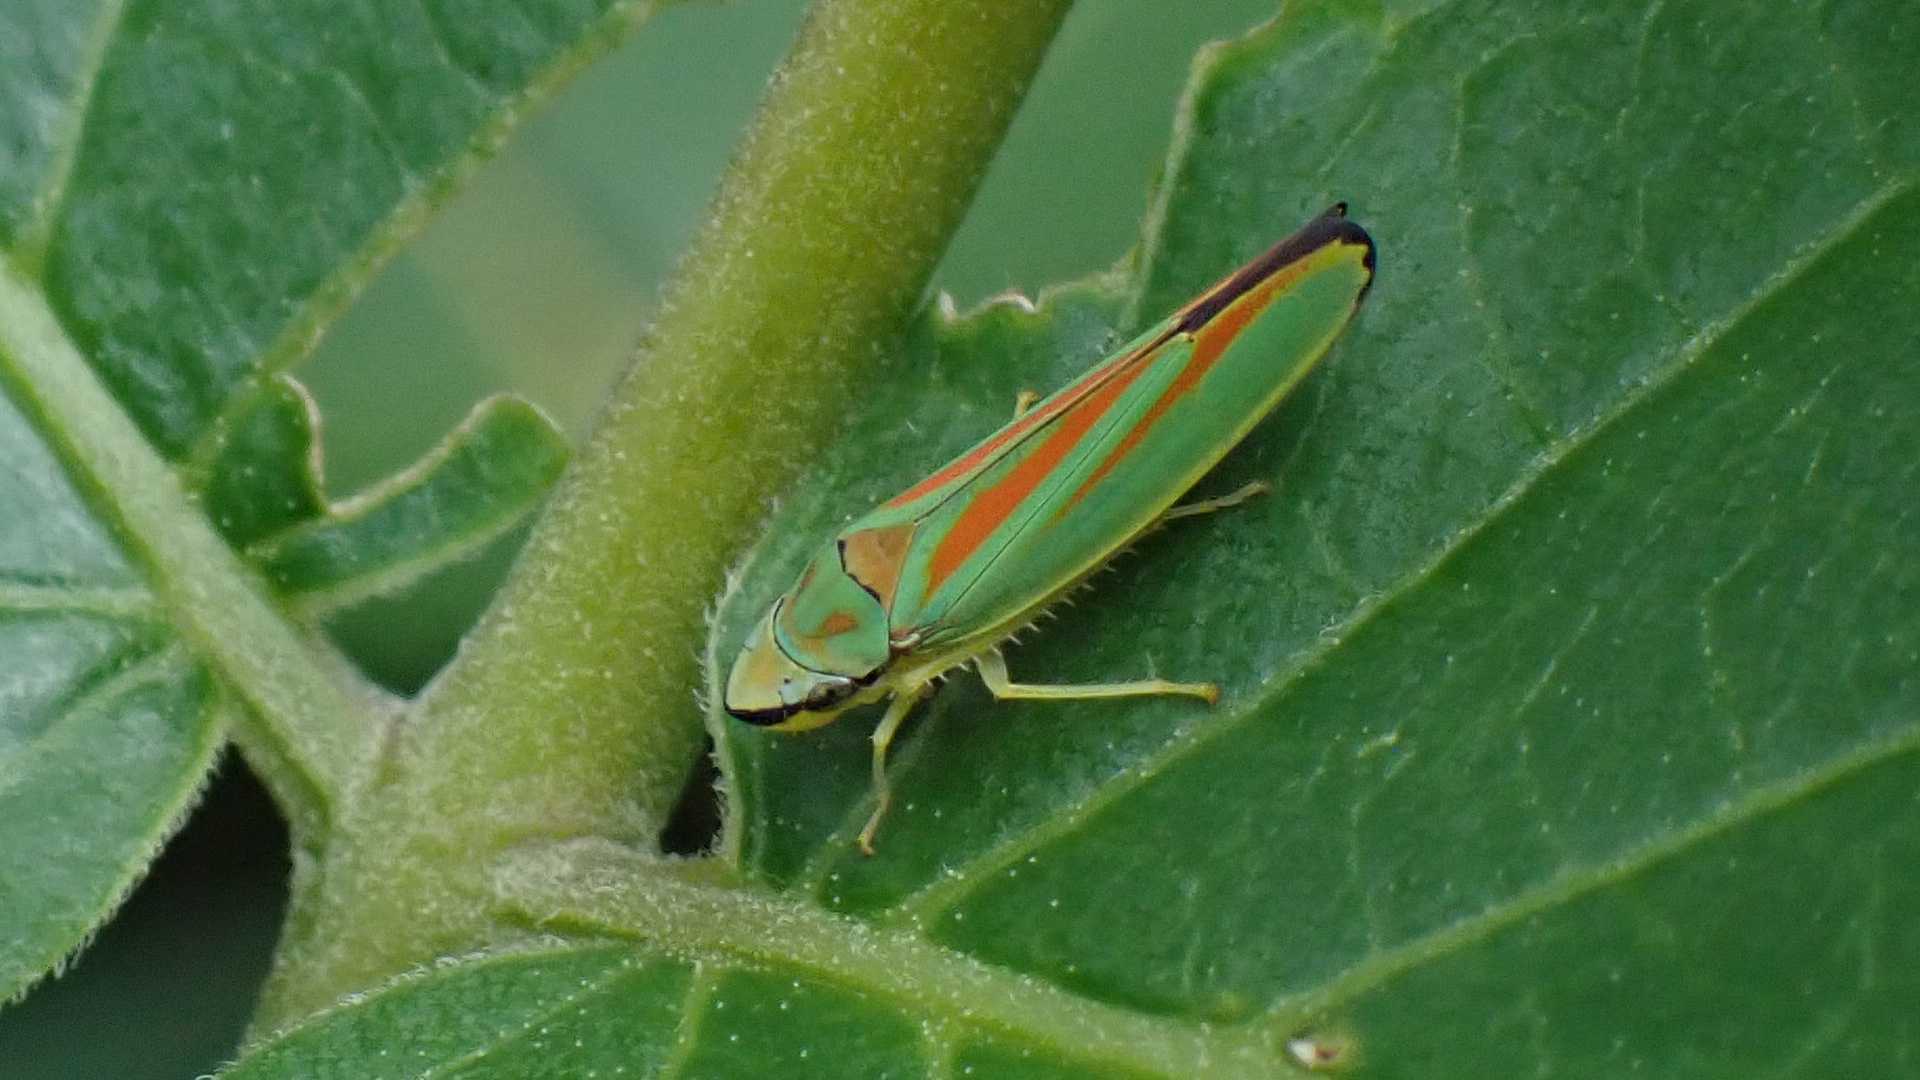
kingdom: Animalia
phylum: Arthropoda
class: Insecta
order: Hemiptera
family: Cicadellidae
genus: Graphocephala
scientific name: Graphocephala fennahi
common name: Rhododendron leafhopper
